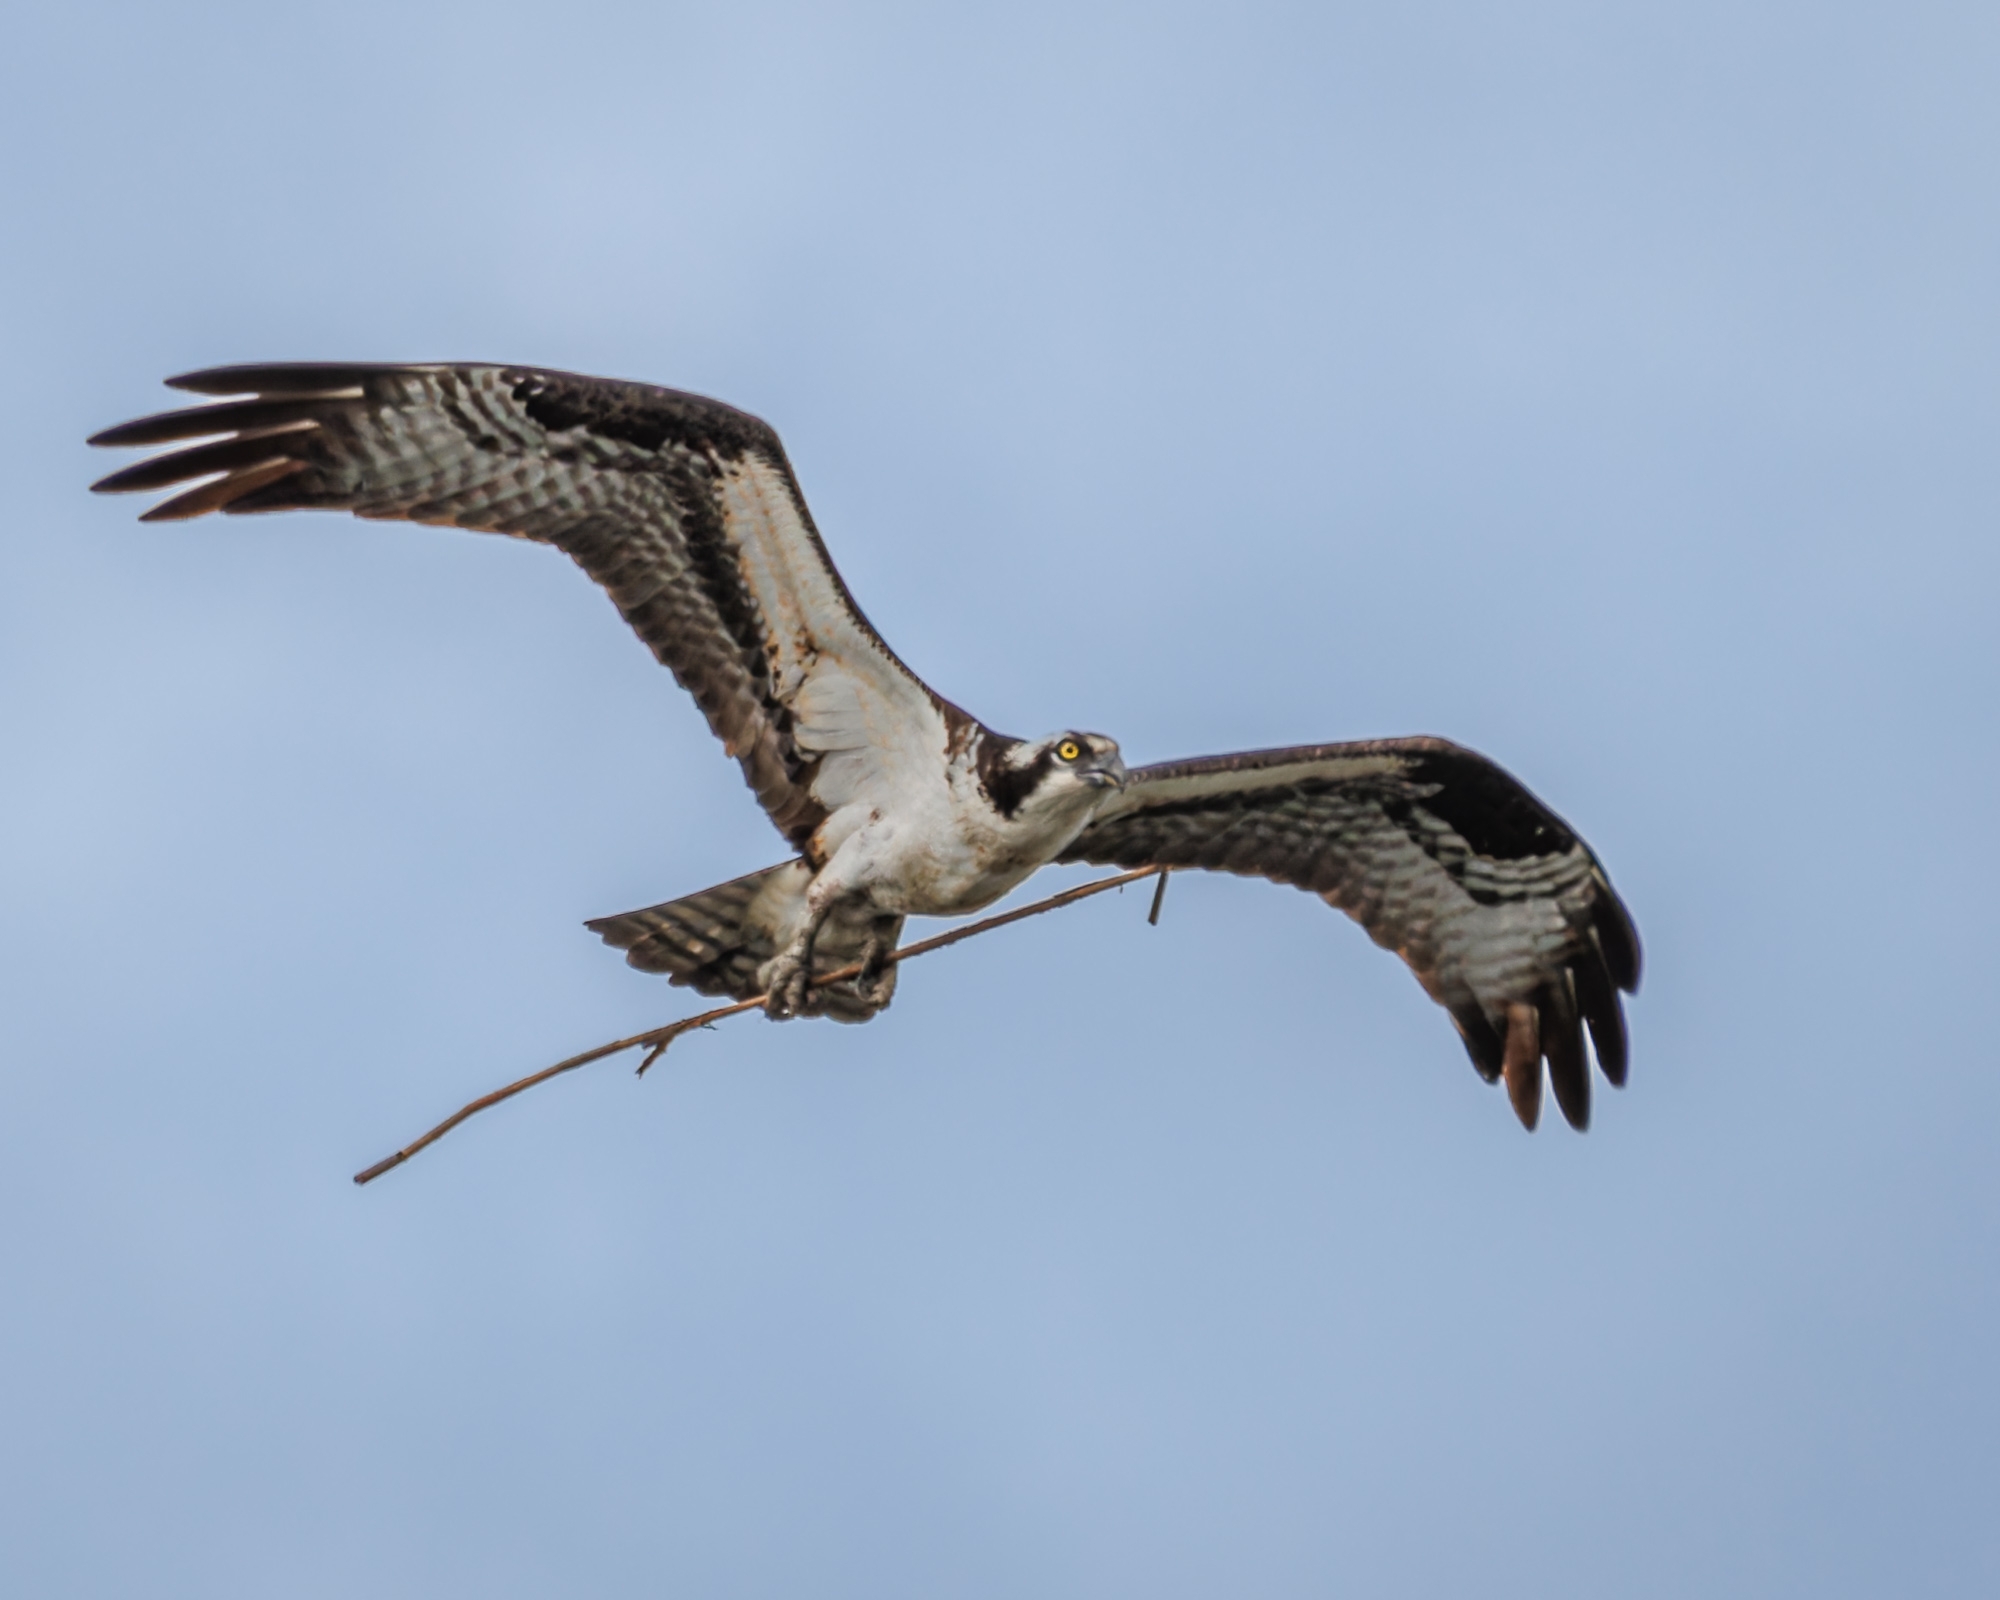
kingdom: Animalia
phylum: Chordata
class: Aves
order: Accipitriformes
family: Pandionidae
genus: Pandion
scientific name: Pandion haliaetus
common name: Osprey
